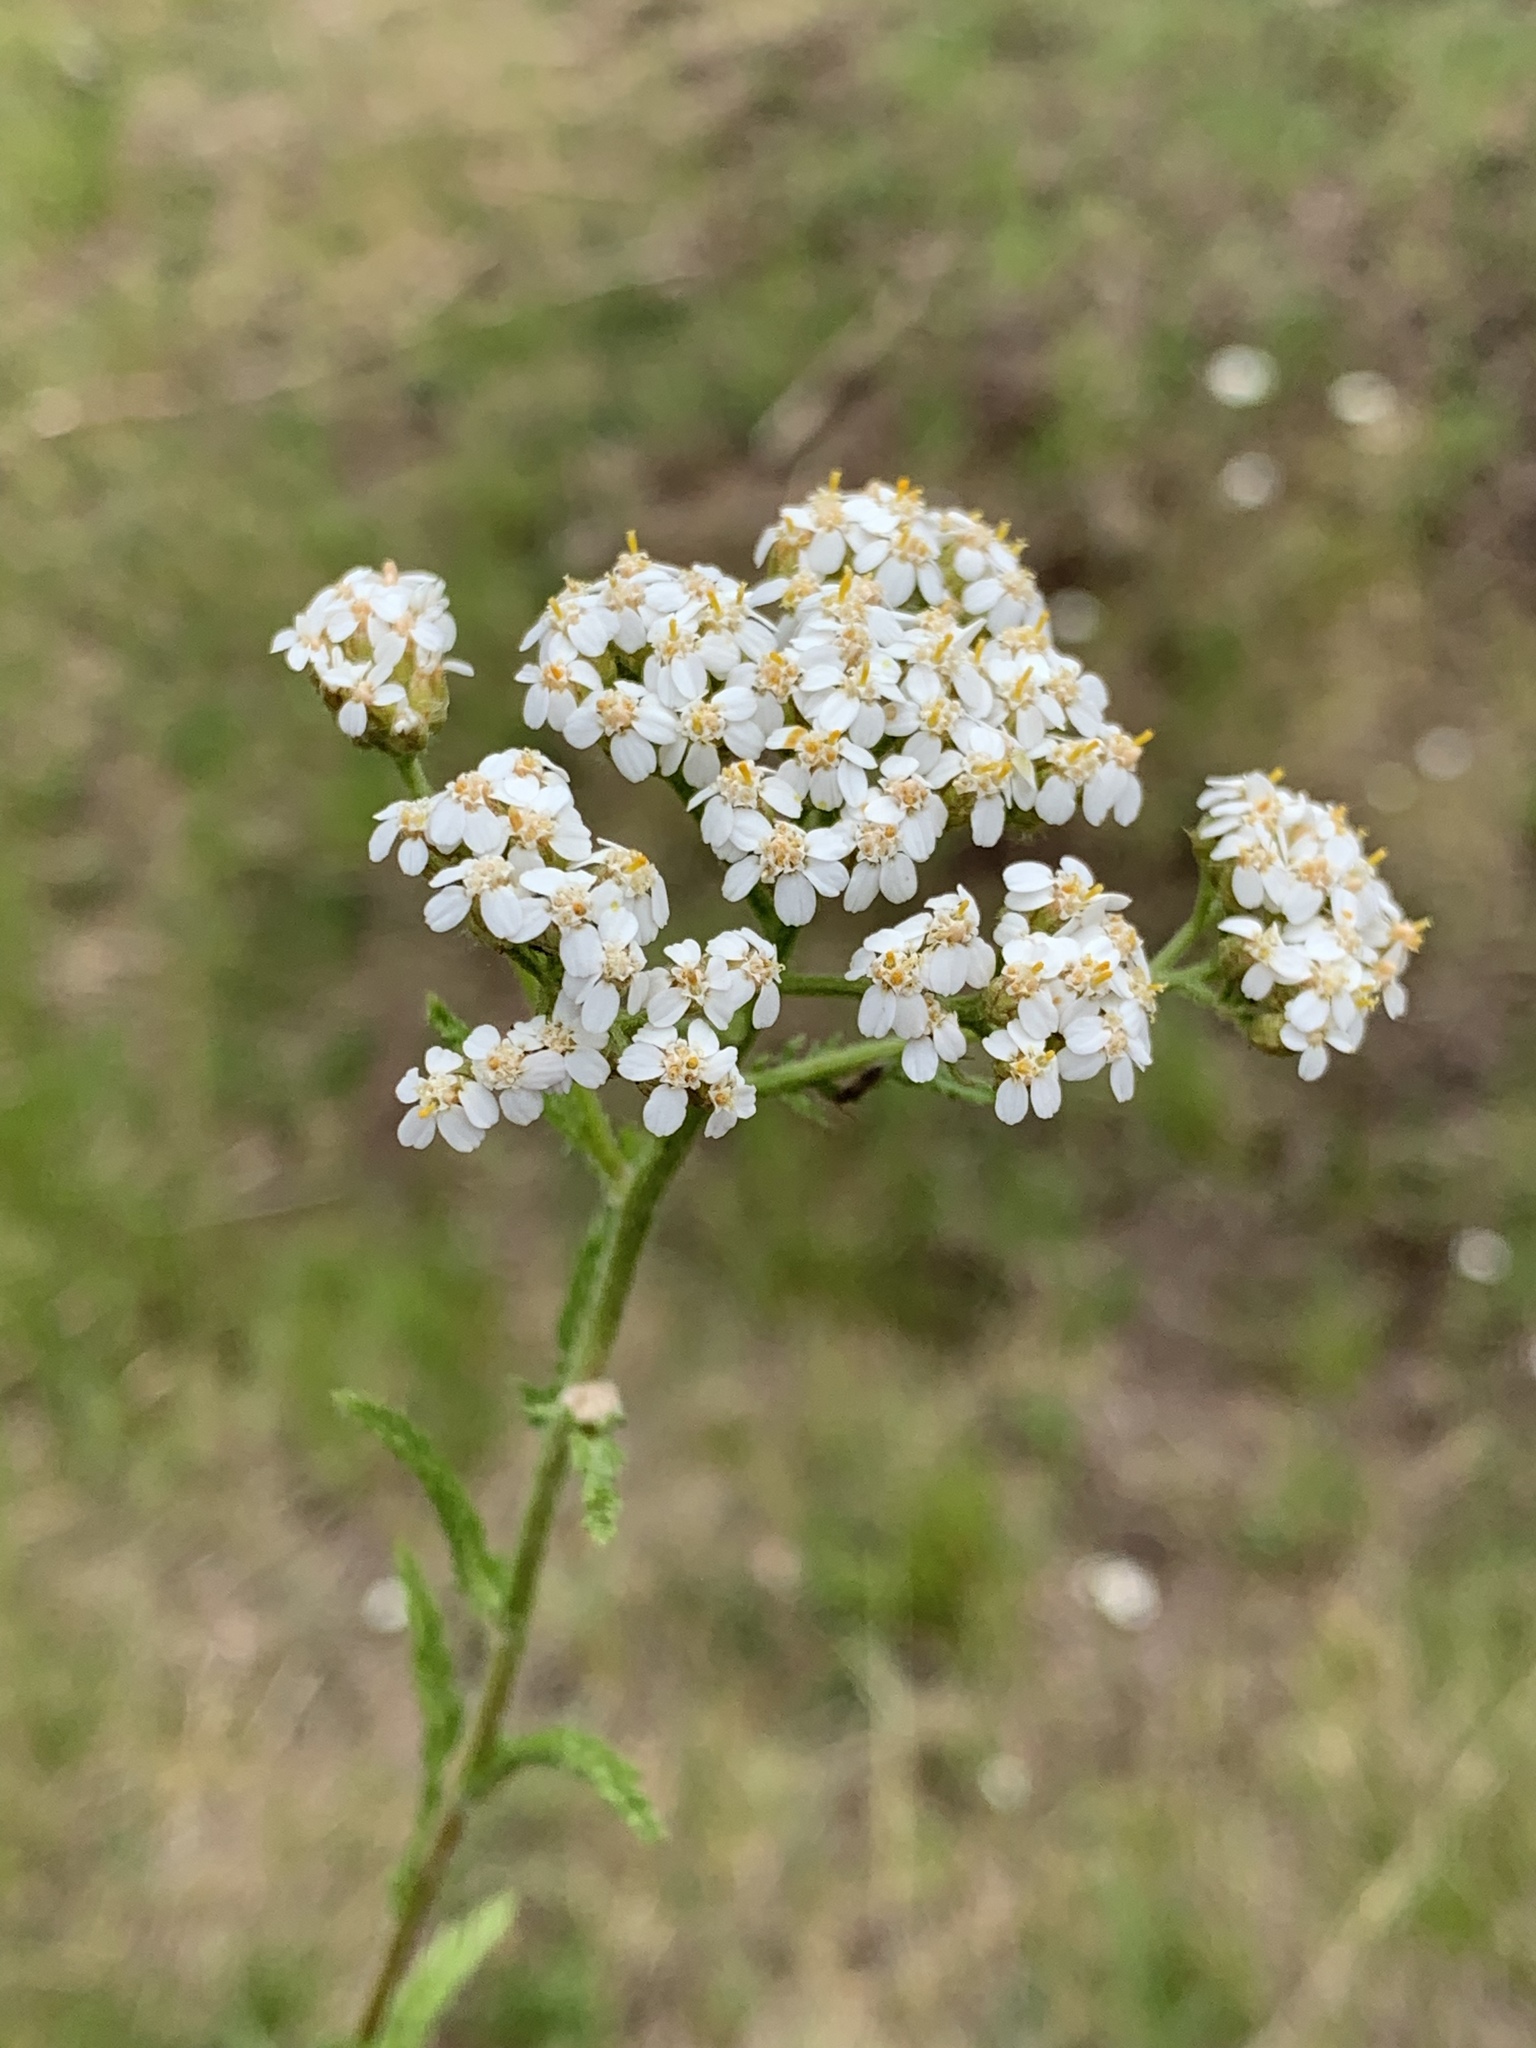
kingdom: Plantae
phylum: Tracheophyta
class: Magnoliopsida
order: Asterales
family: Asteraceae
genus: Achillea
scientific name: Achillea millefolium
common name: Yarrow
